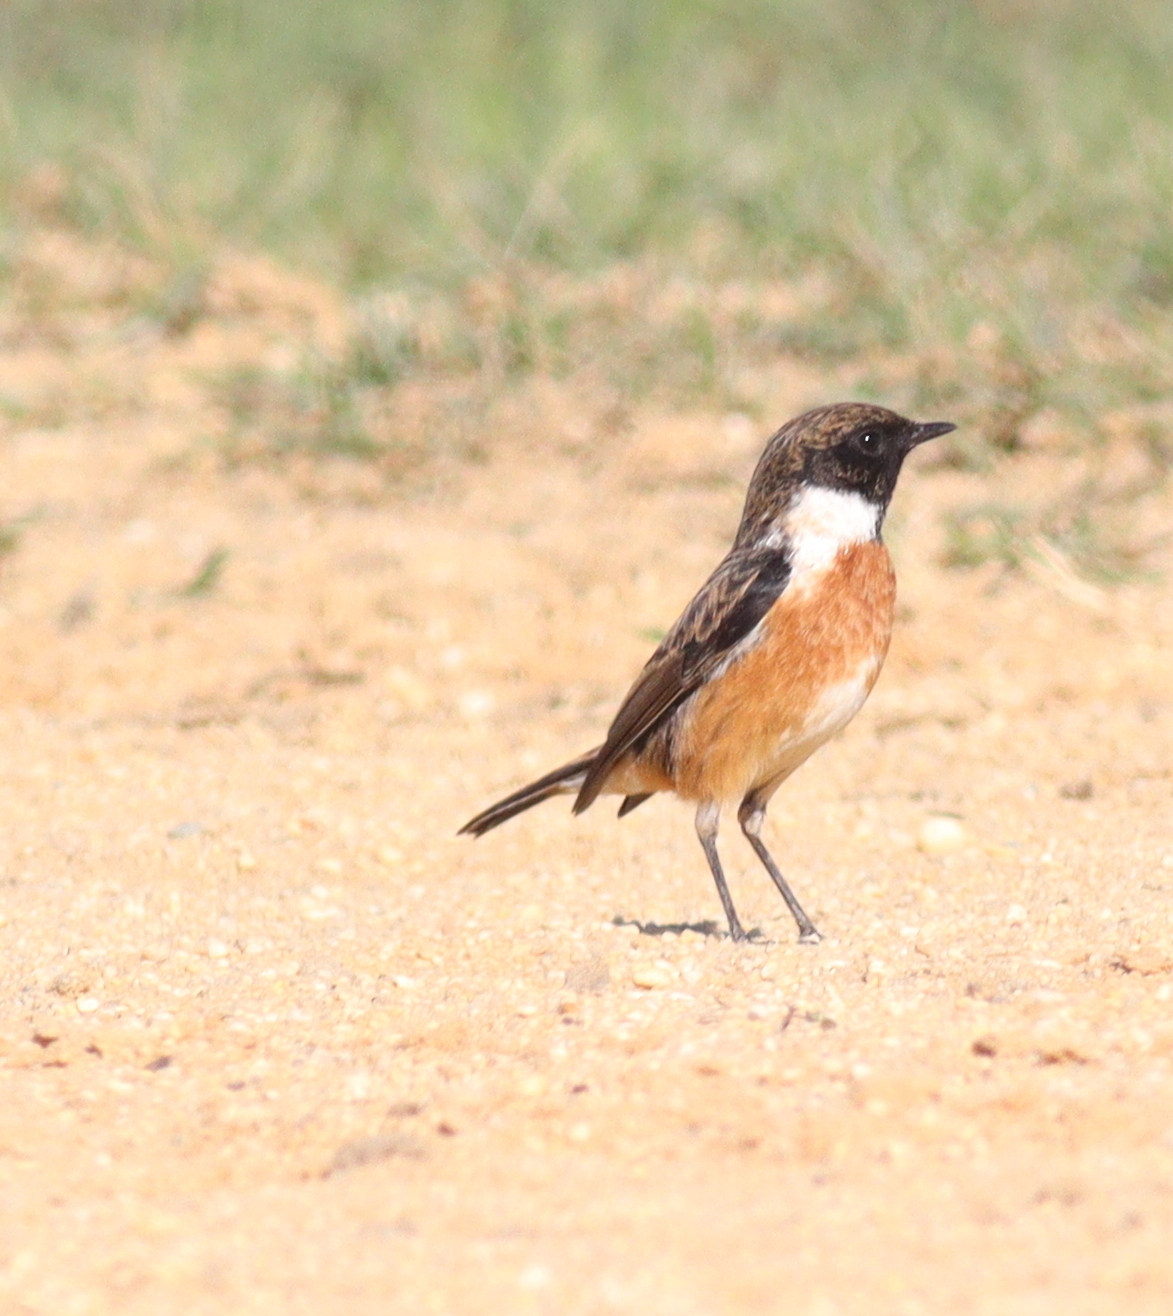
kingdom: Animalia
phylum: Chordata
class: Aves
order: Passeriformes
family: Muscicapidae
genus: Saxicola
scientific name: Saxicola rubicola
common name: European stonechat
